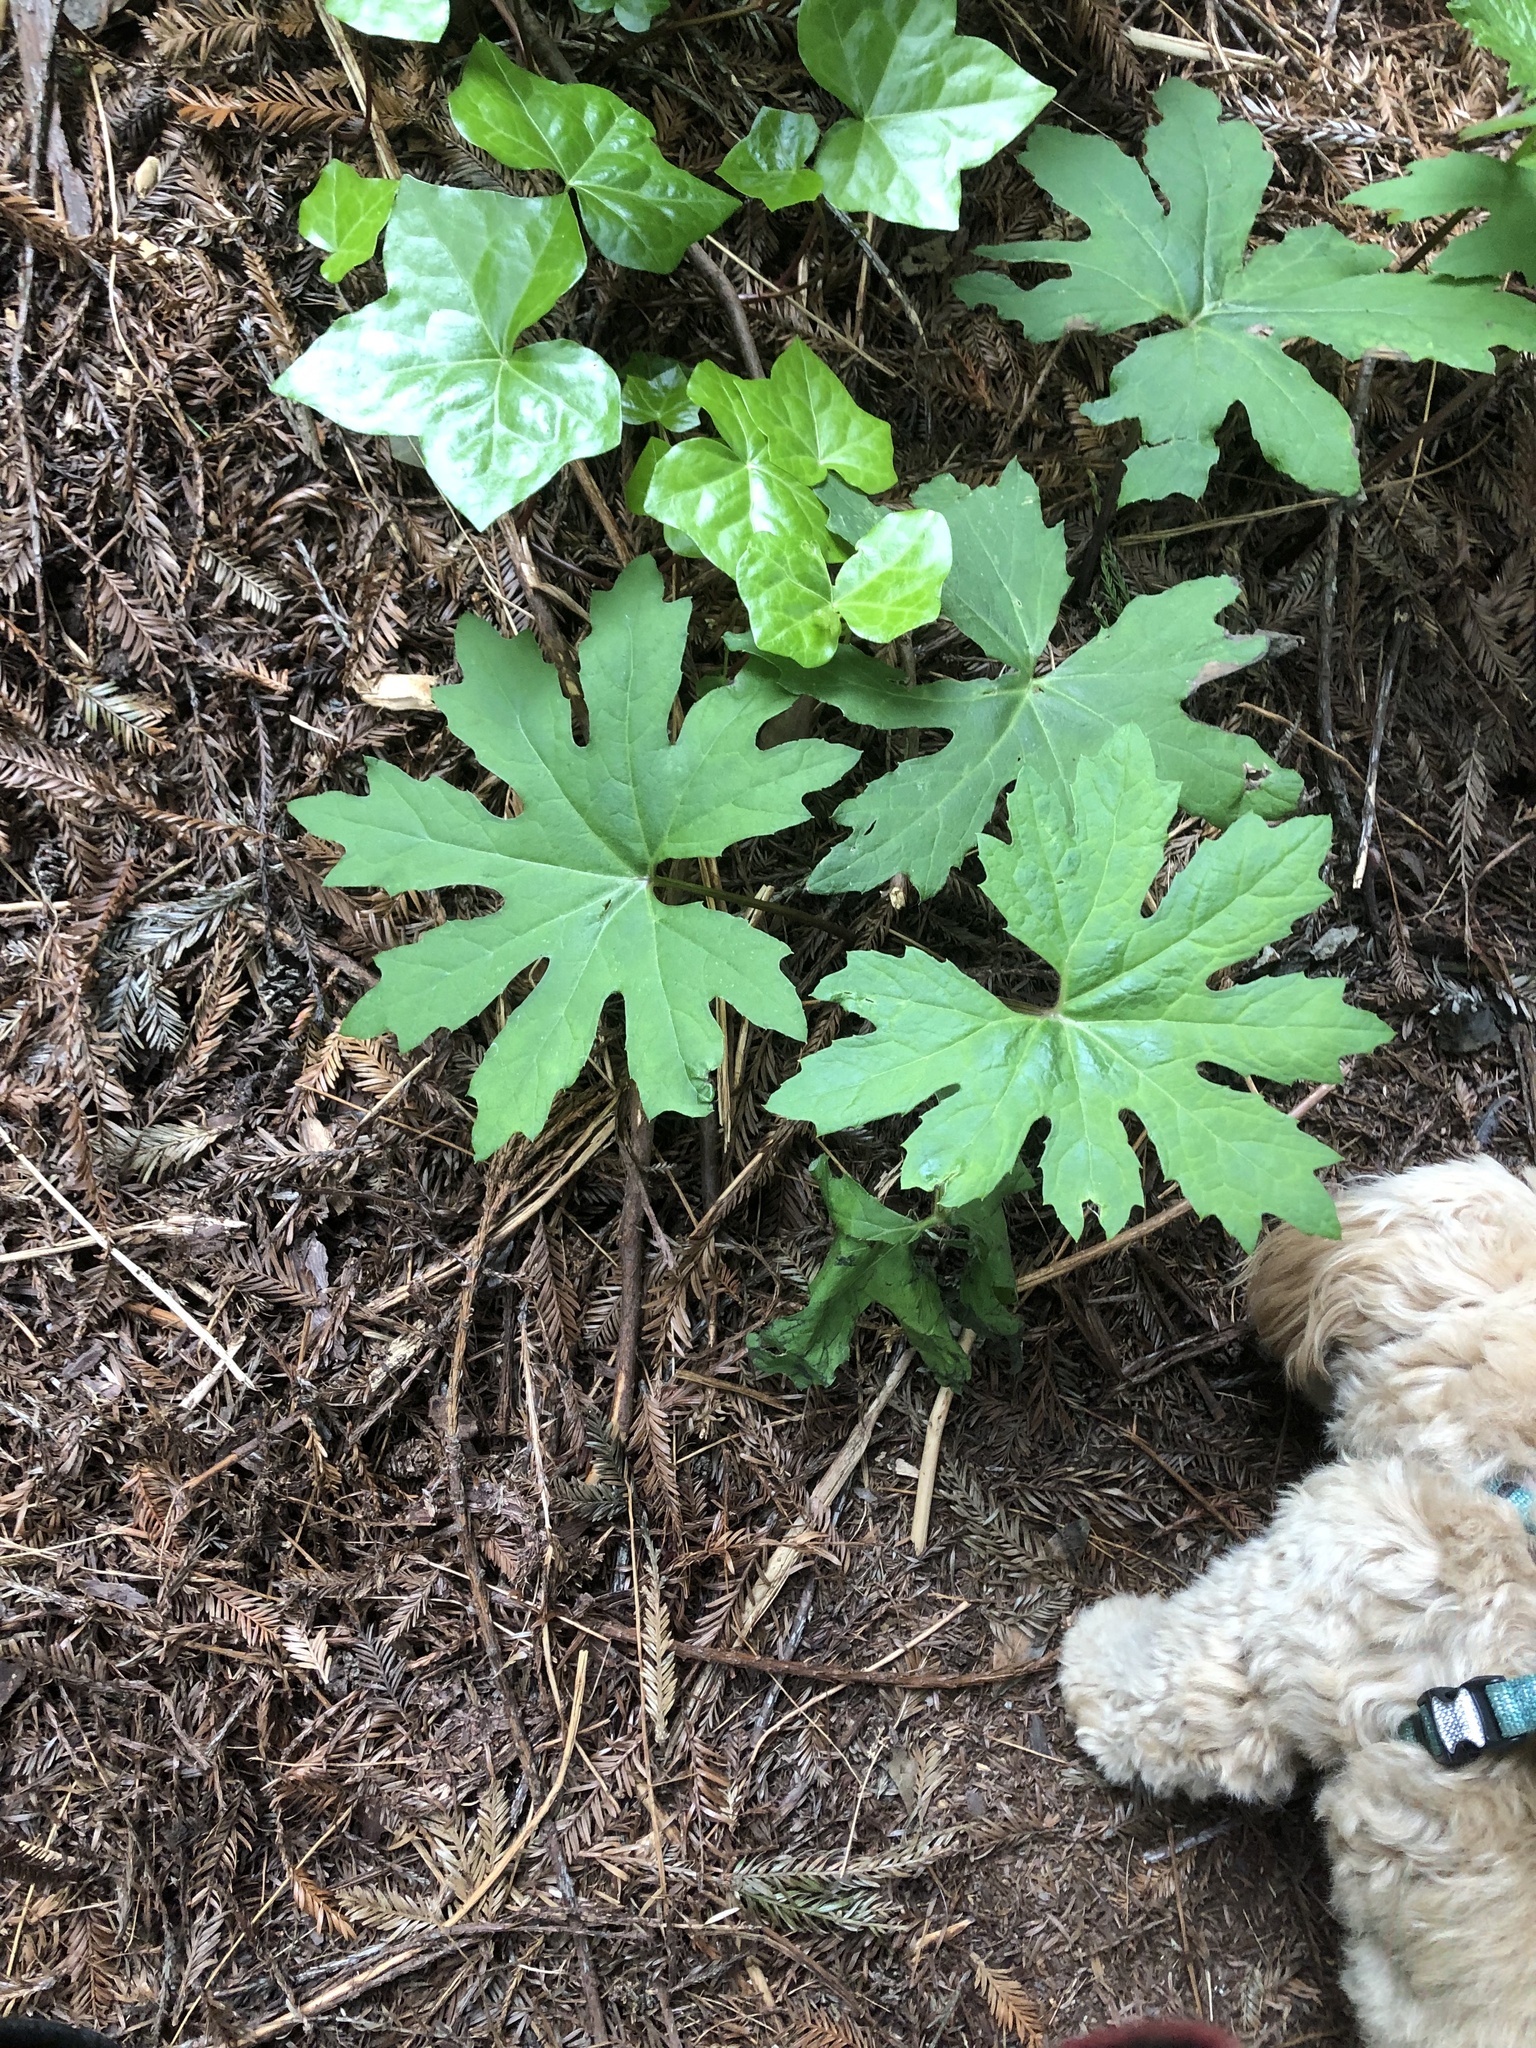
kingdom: Plantae
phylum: Tracheophyta
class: Magnoliopsida
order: Asterales
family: Asteraceae
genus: Petasites
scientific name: Petasites frigidus
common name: Arctic butterbur
